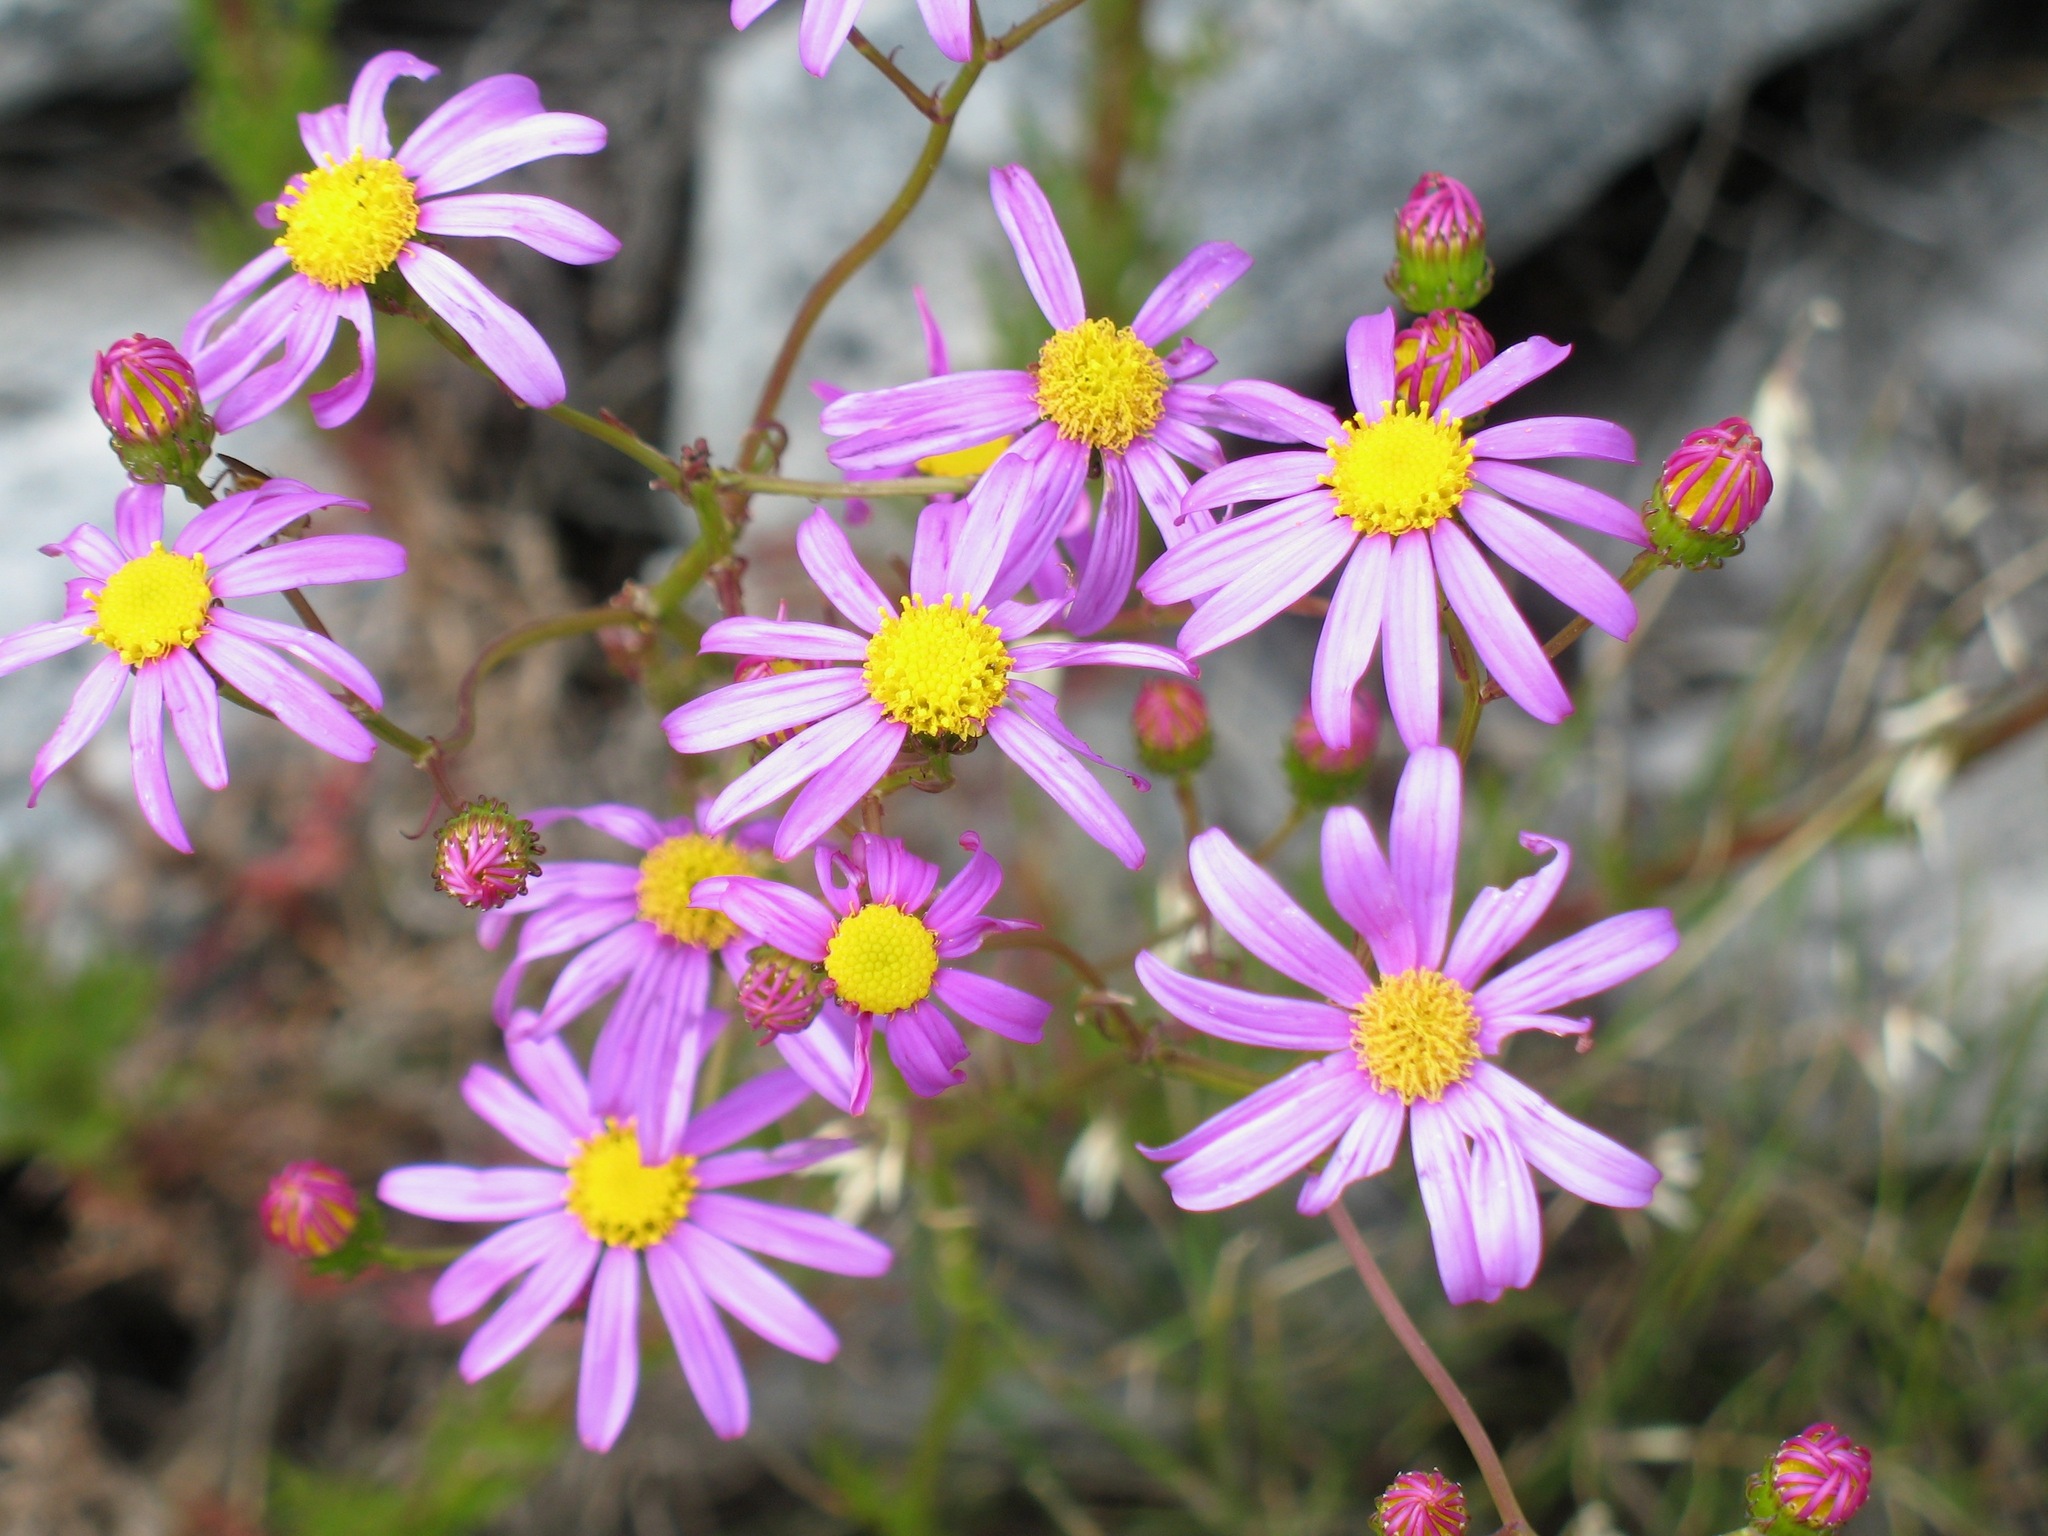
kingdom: Plantae
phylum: Tracheophyta
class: Magnoliopsida
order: Asterales
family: Asteraceae
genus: Senecio
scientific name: Senecio umbellatus
